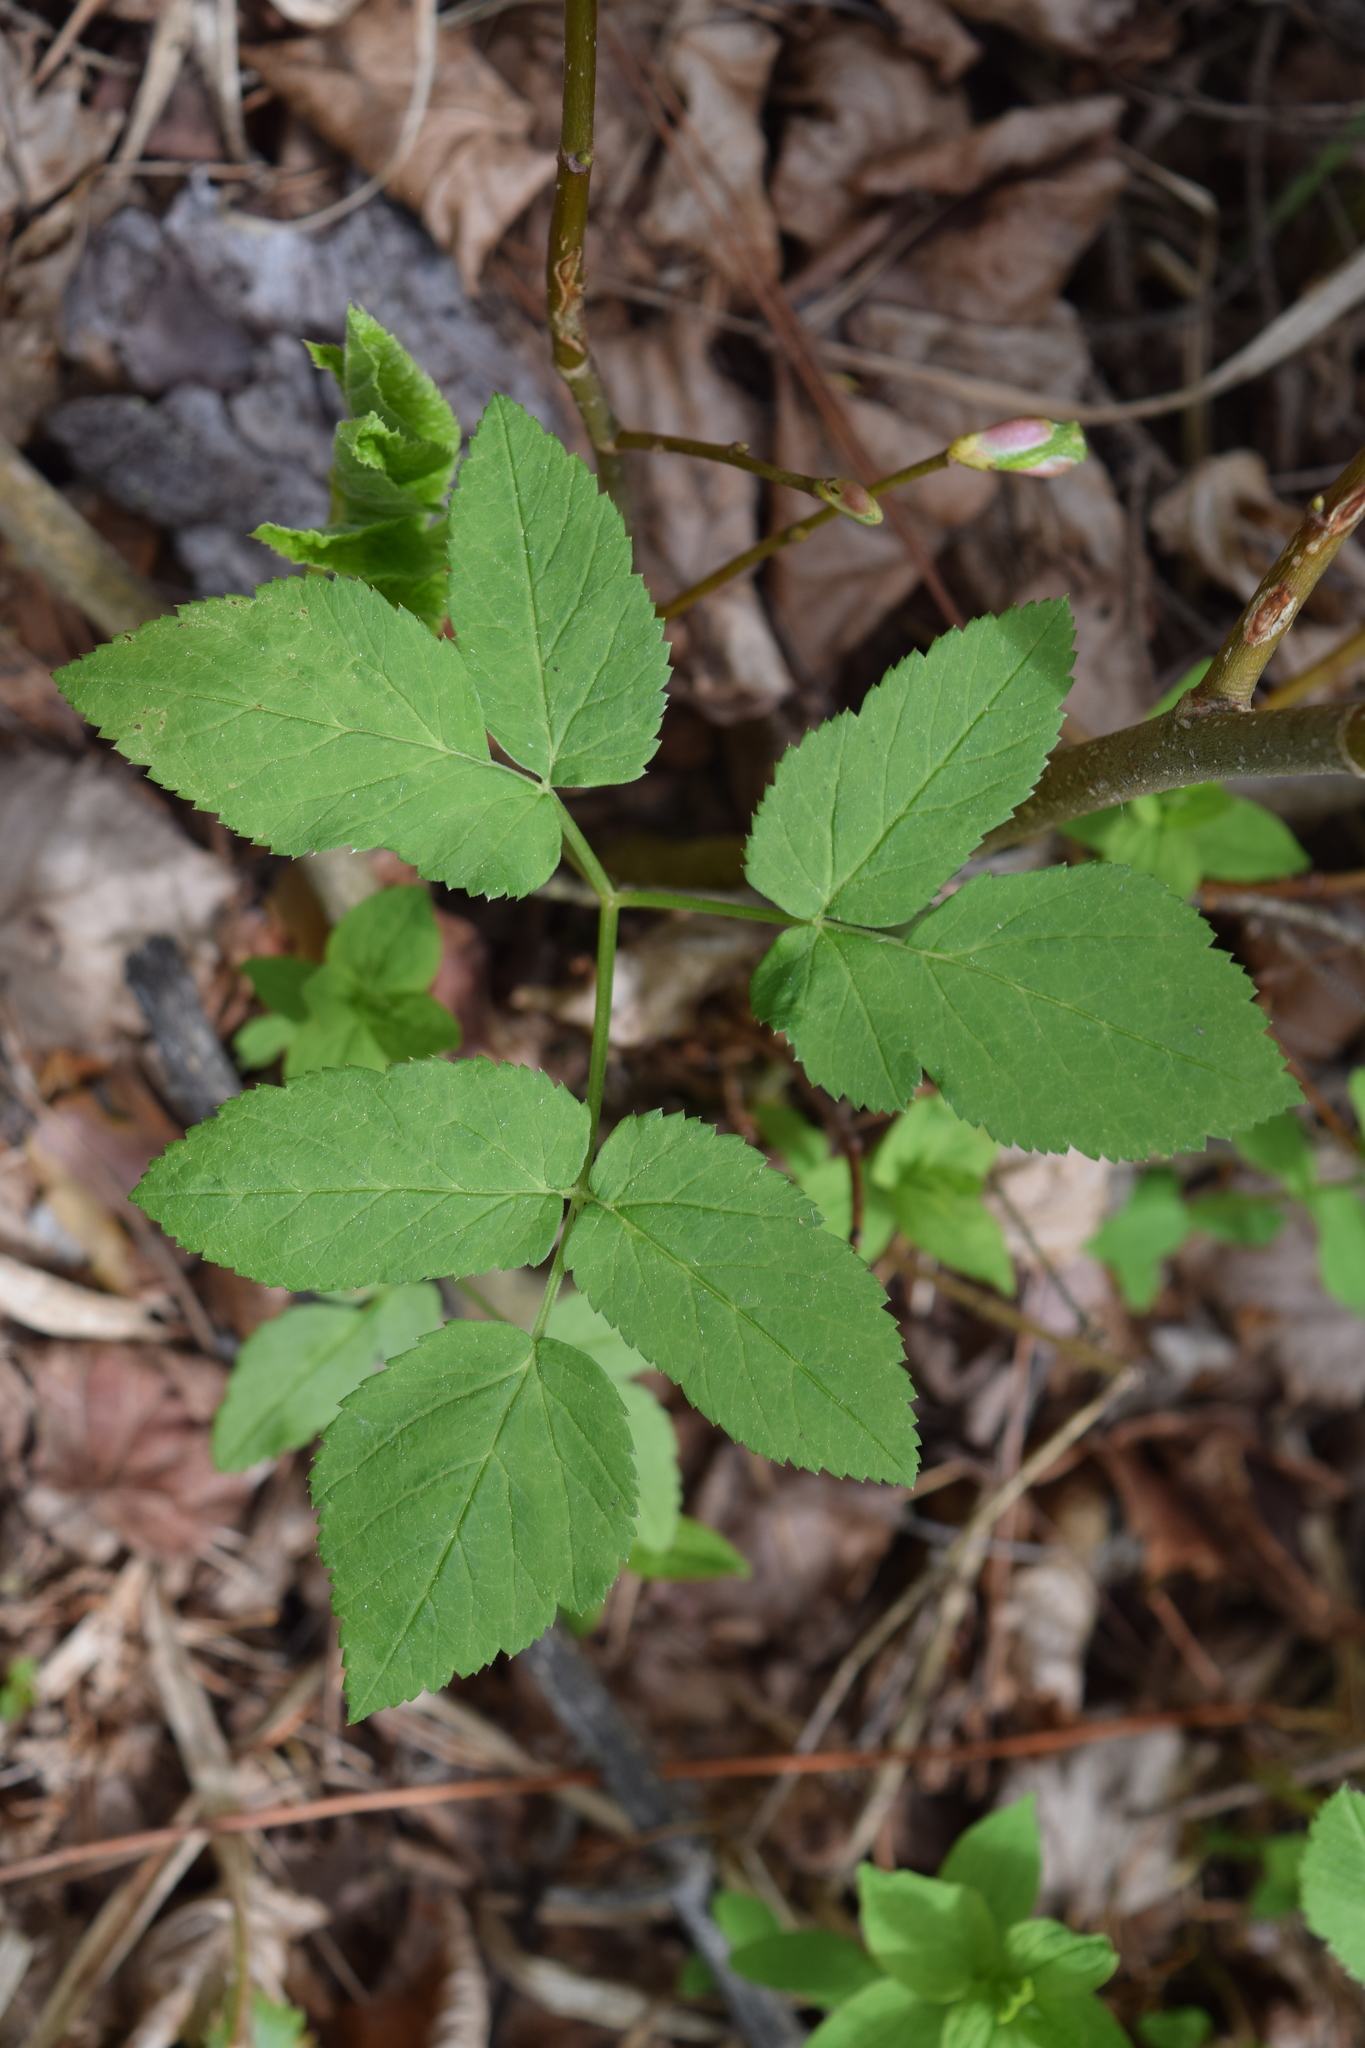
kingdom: Plantae
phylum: Tracheophyta
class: Magnoliopsida
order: Apiales
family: Apiaceae
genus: Aegopodium
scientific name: Aegopodium podagraria
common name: Ground-elder
